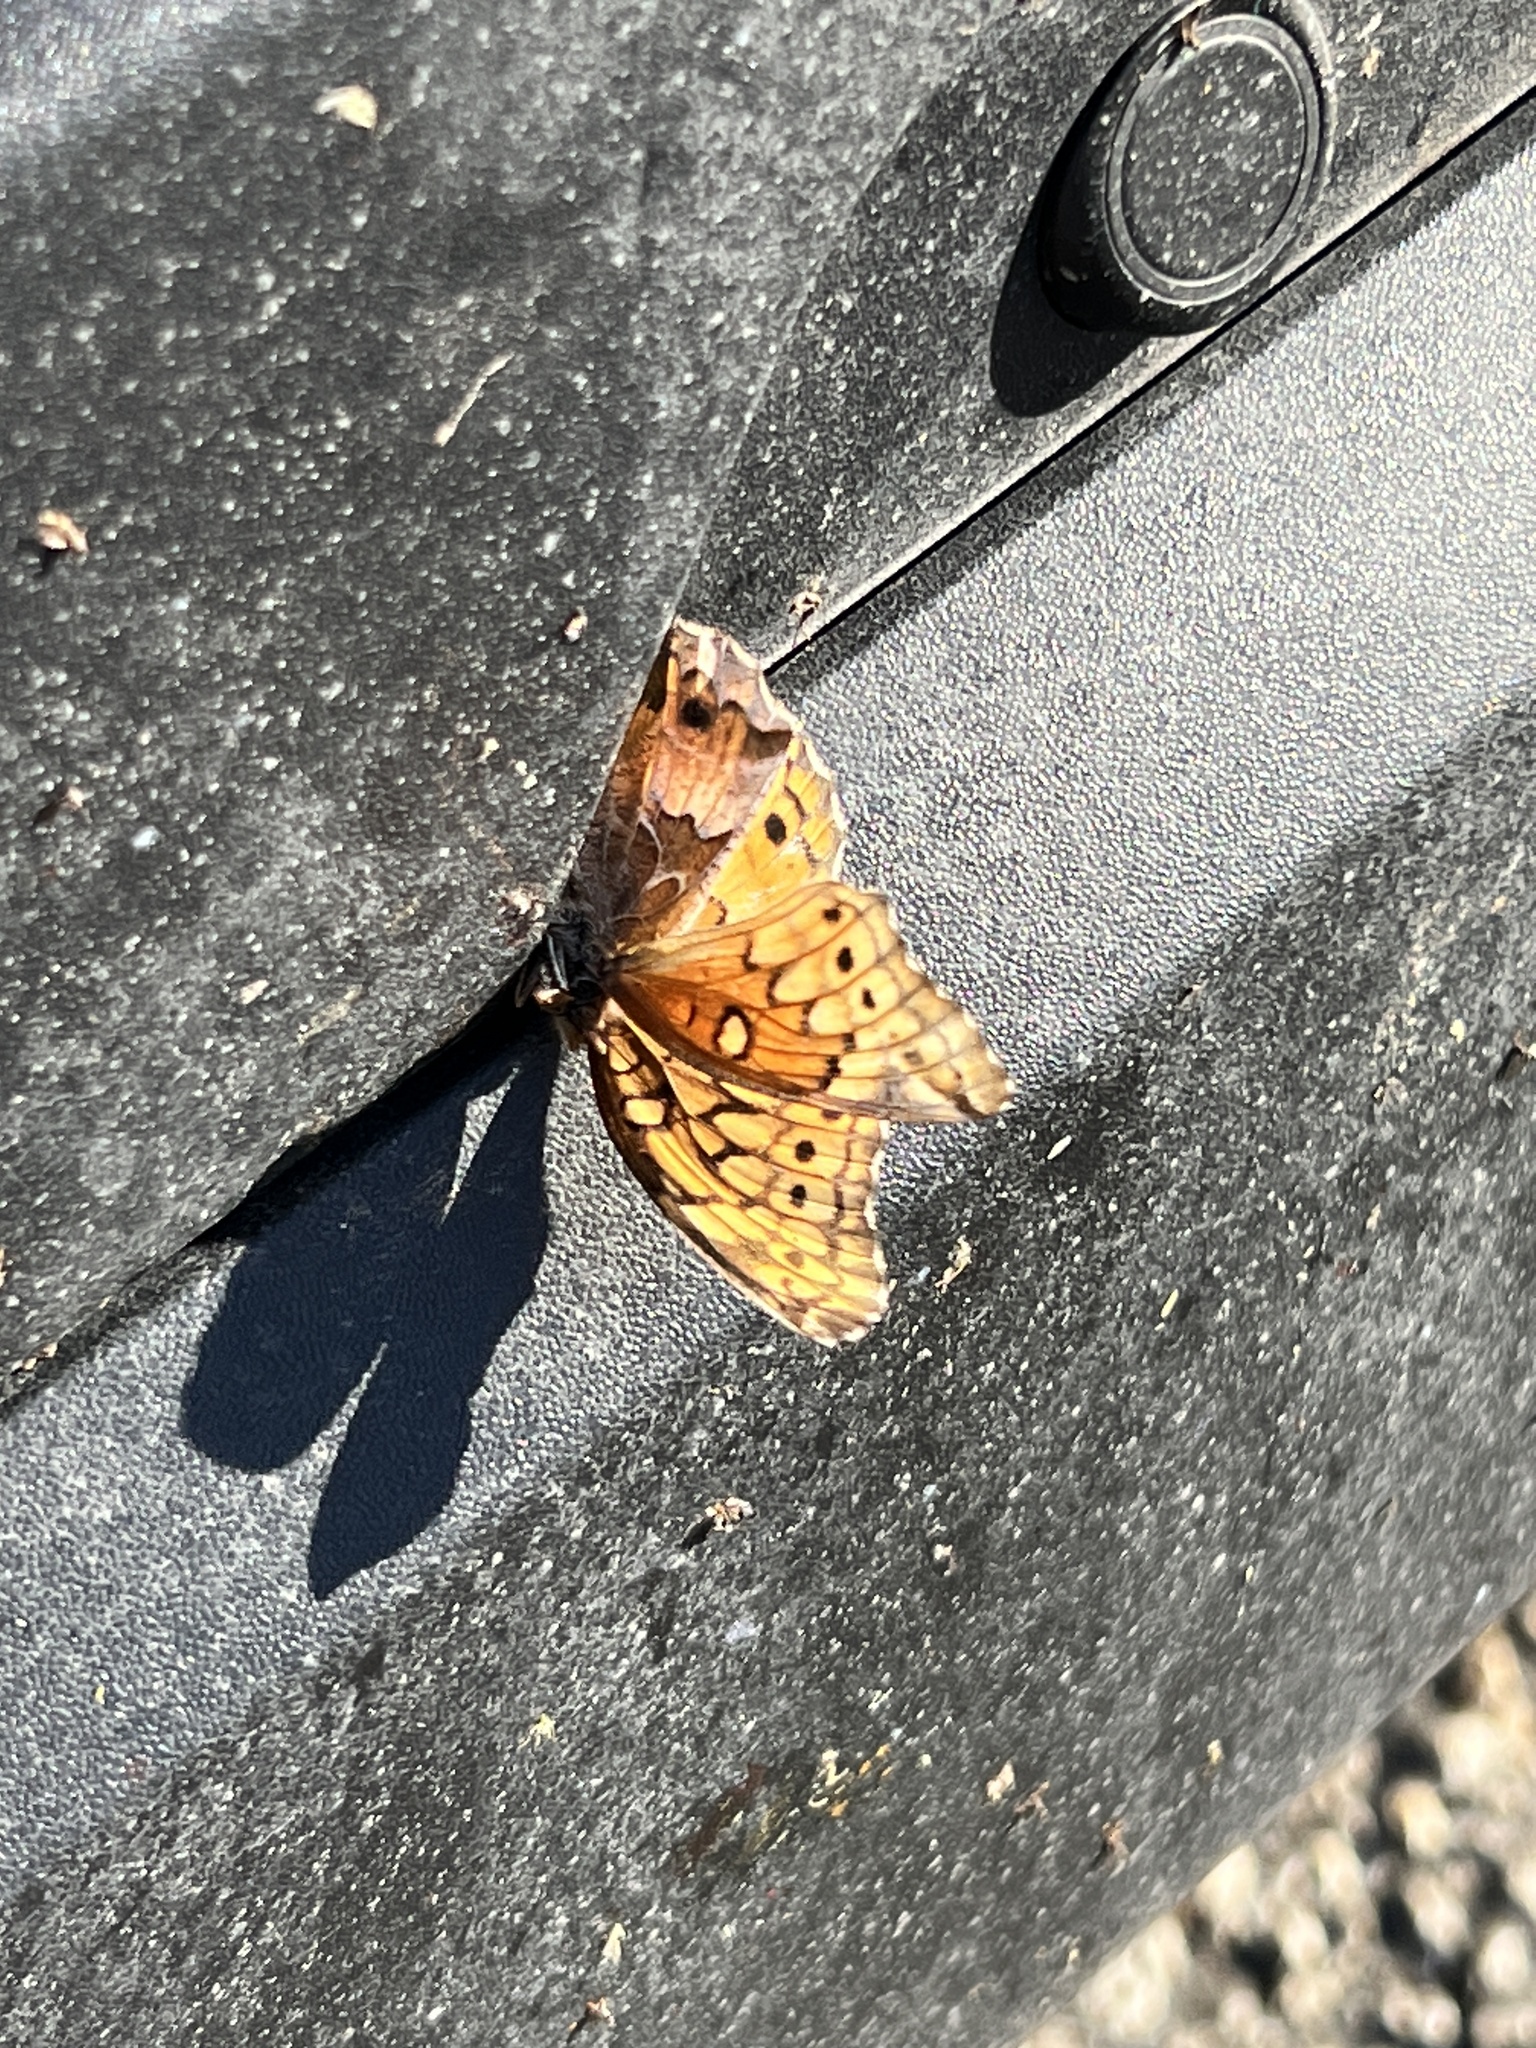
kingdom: Animalia
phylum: Arthropoda
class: Insecta
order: Lepidoptera
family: Nymphalidae
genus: Euptoieta
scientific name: Euptoieta claudia
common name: Variegated fritillary
